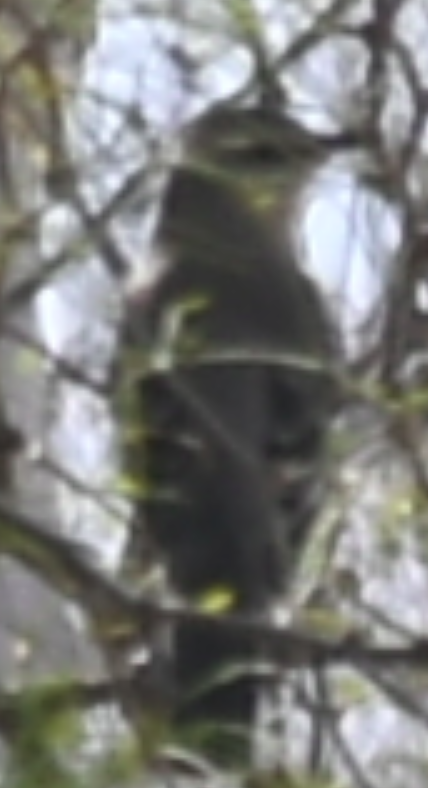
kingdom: Animalia
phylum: Chordata
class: Aves
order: Passeriformes
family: Mimidae
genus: Mimus
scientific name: Mimus polyglottos
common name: Northern mockingbird
